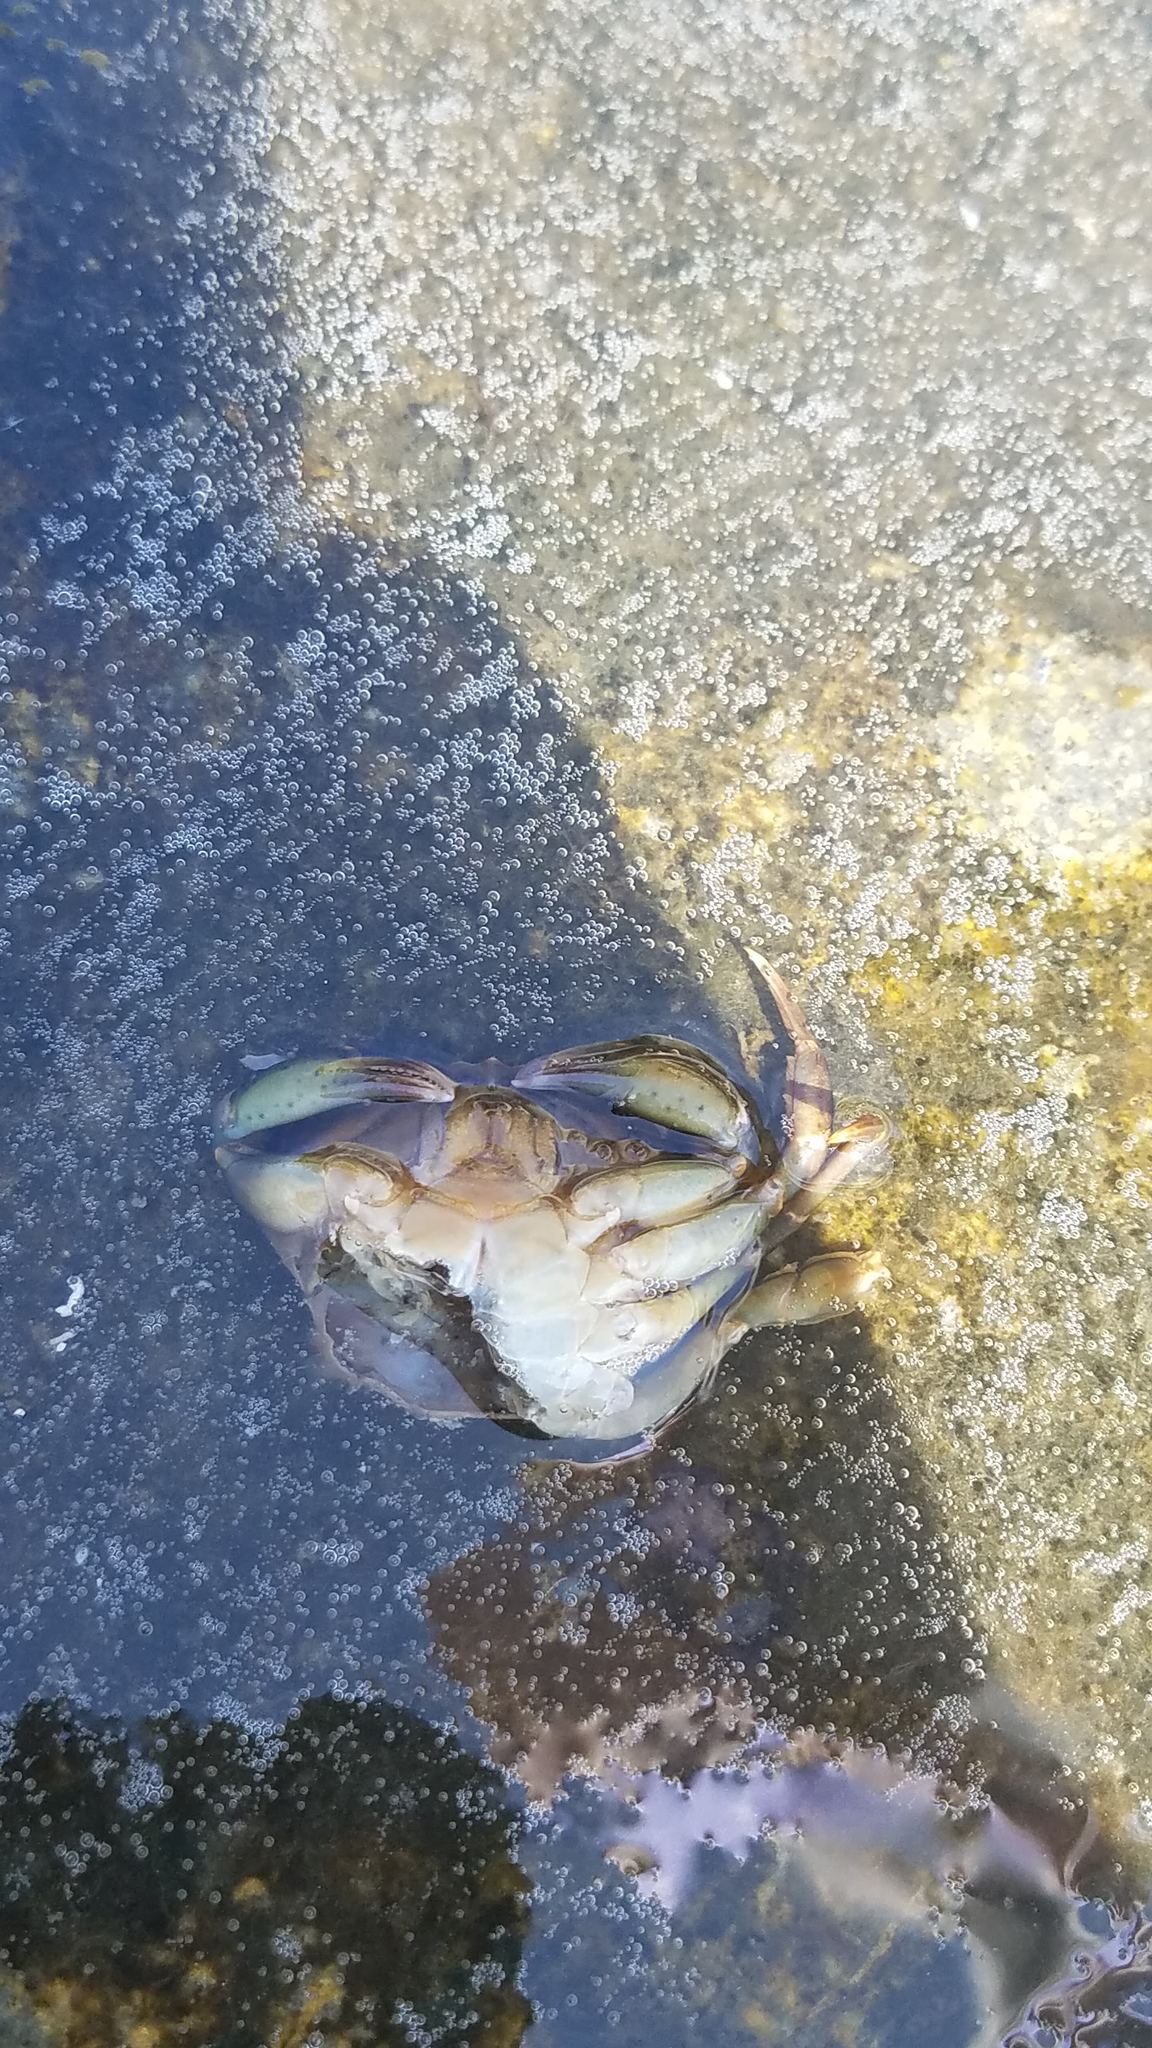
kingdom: Animalia
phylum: Arthropoda
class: Malacostraca
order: Decapoda
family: Carcinidae
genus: Carcinus
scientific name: Carcinus maenas
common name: European green crab
